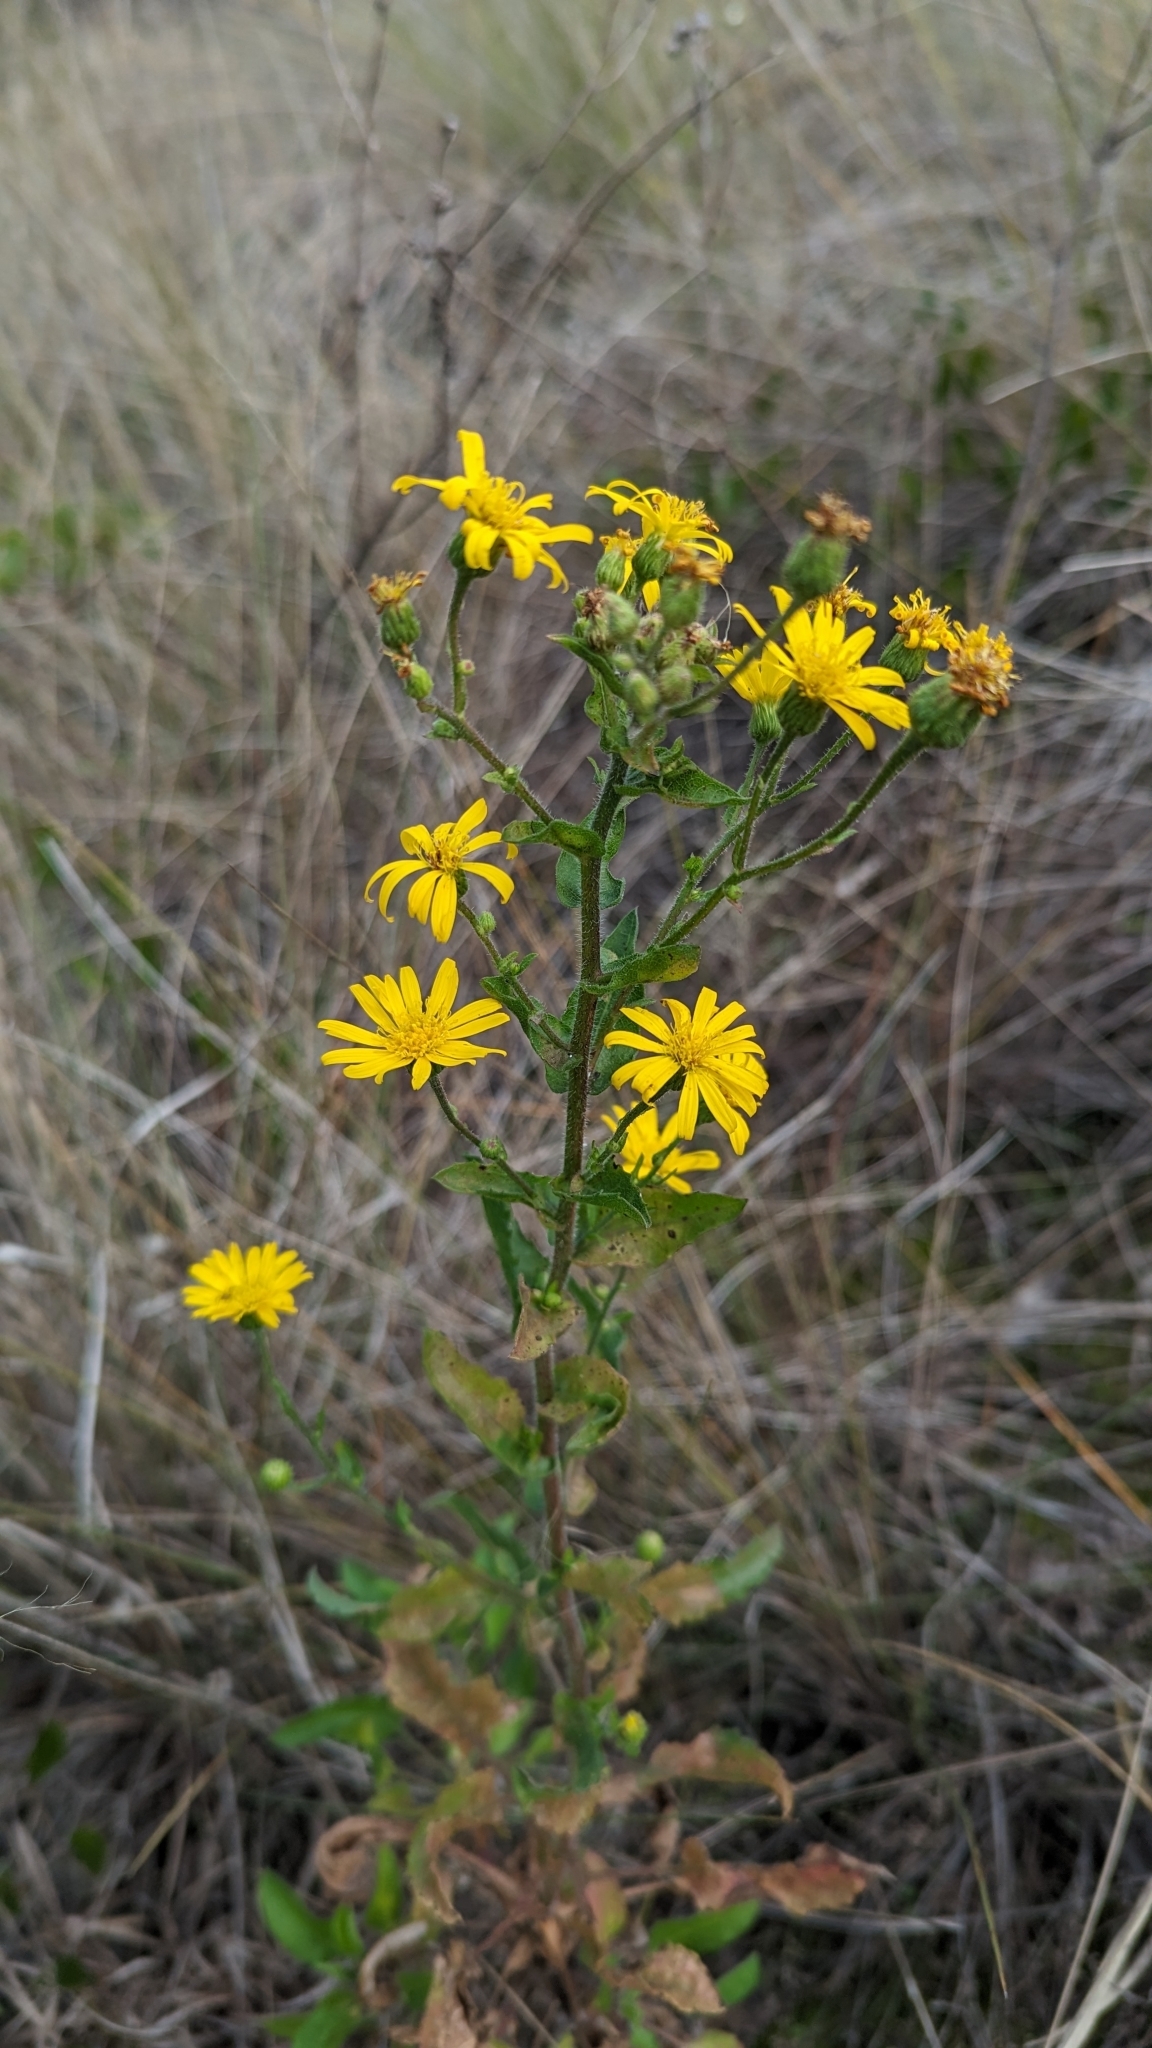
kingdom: Plantae
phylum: Tracheophyta
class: Magnoliopsida
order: Asterales
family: Asteraceae
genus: Heterotheca
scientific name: Heterotheca subaxillaris
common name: Camphorweed
